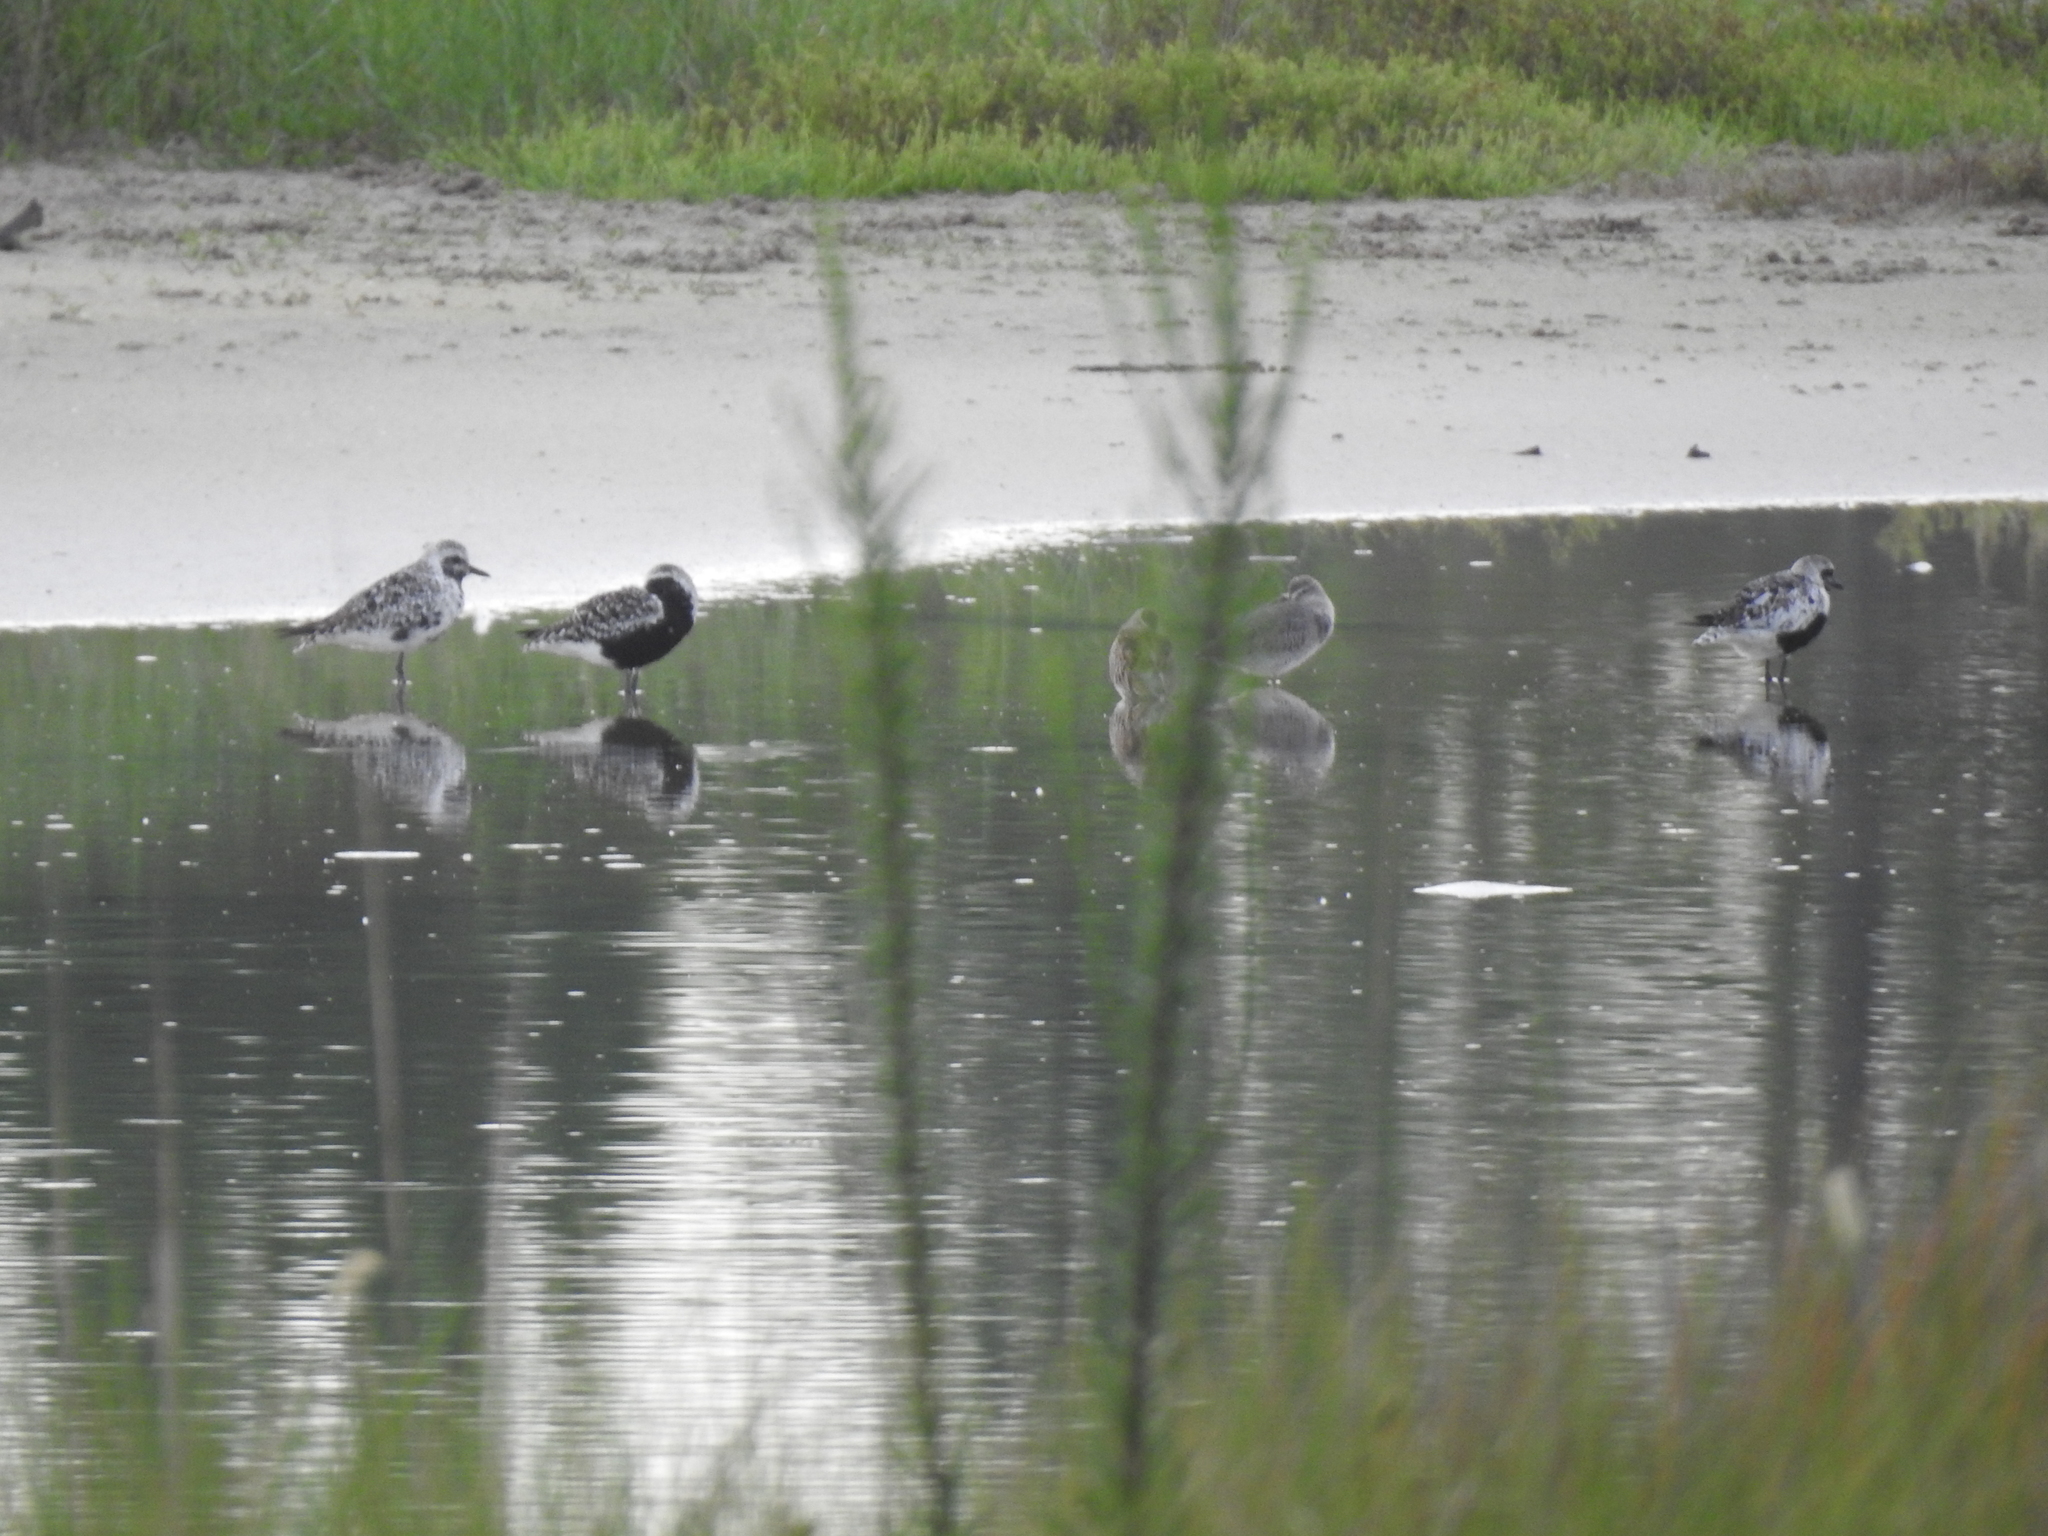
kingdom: Animalia
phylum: Chordata
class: Aves
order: Charadriiformes
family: Charadriidae
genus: Pluvialis
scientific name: Pluvialis squatarola
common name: Grey plover
